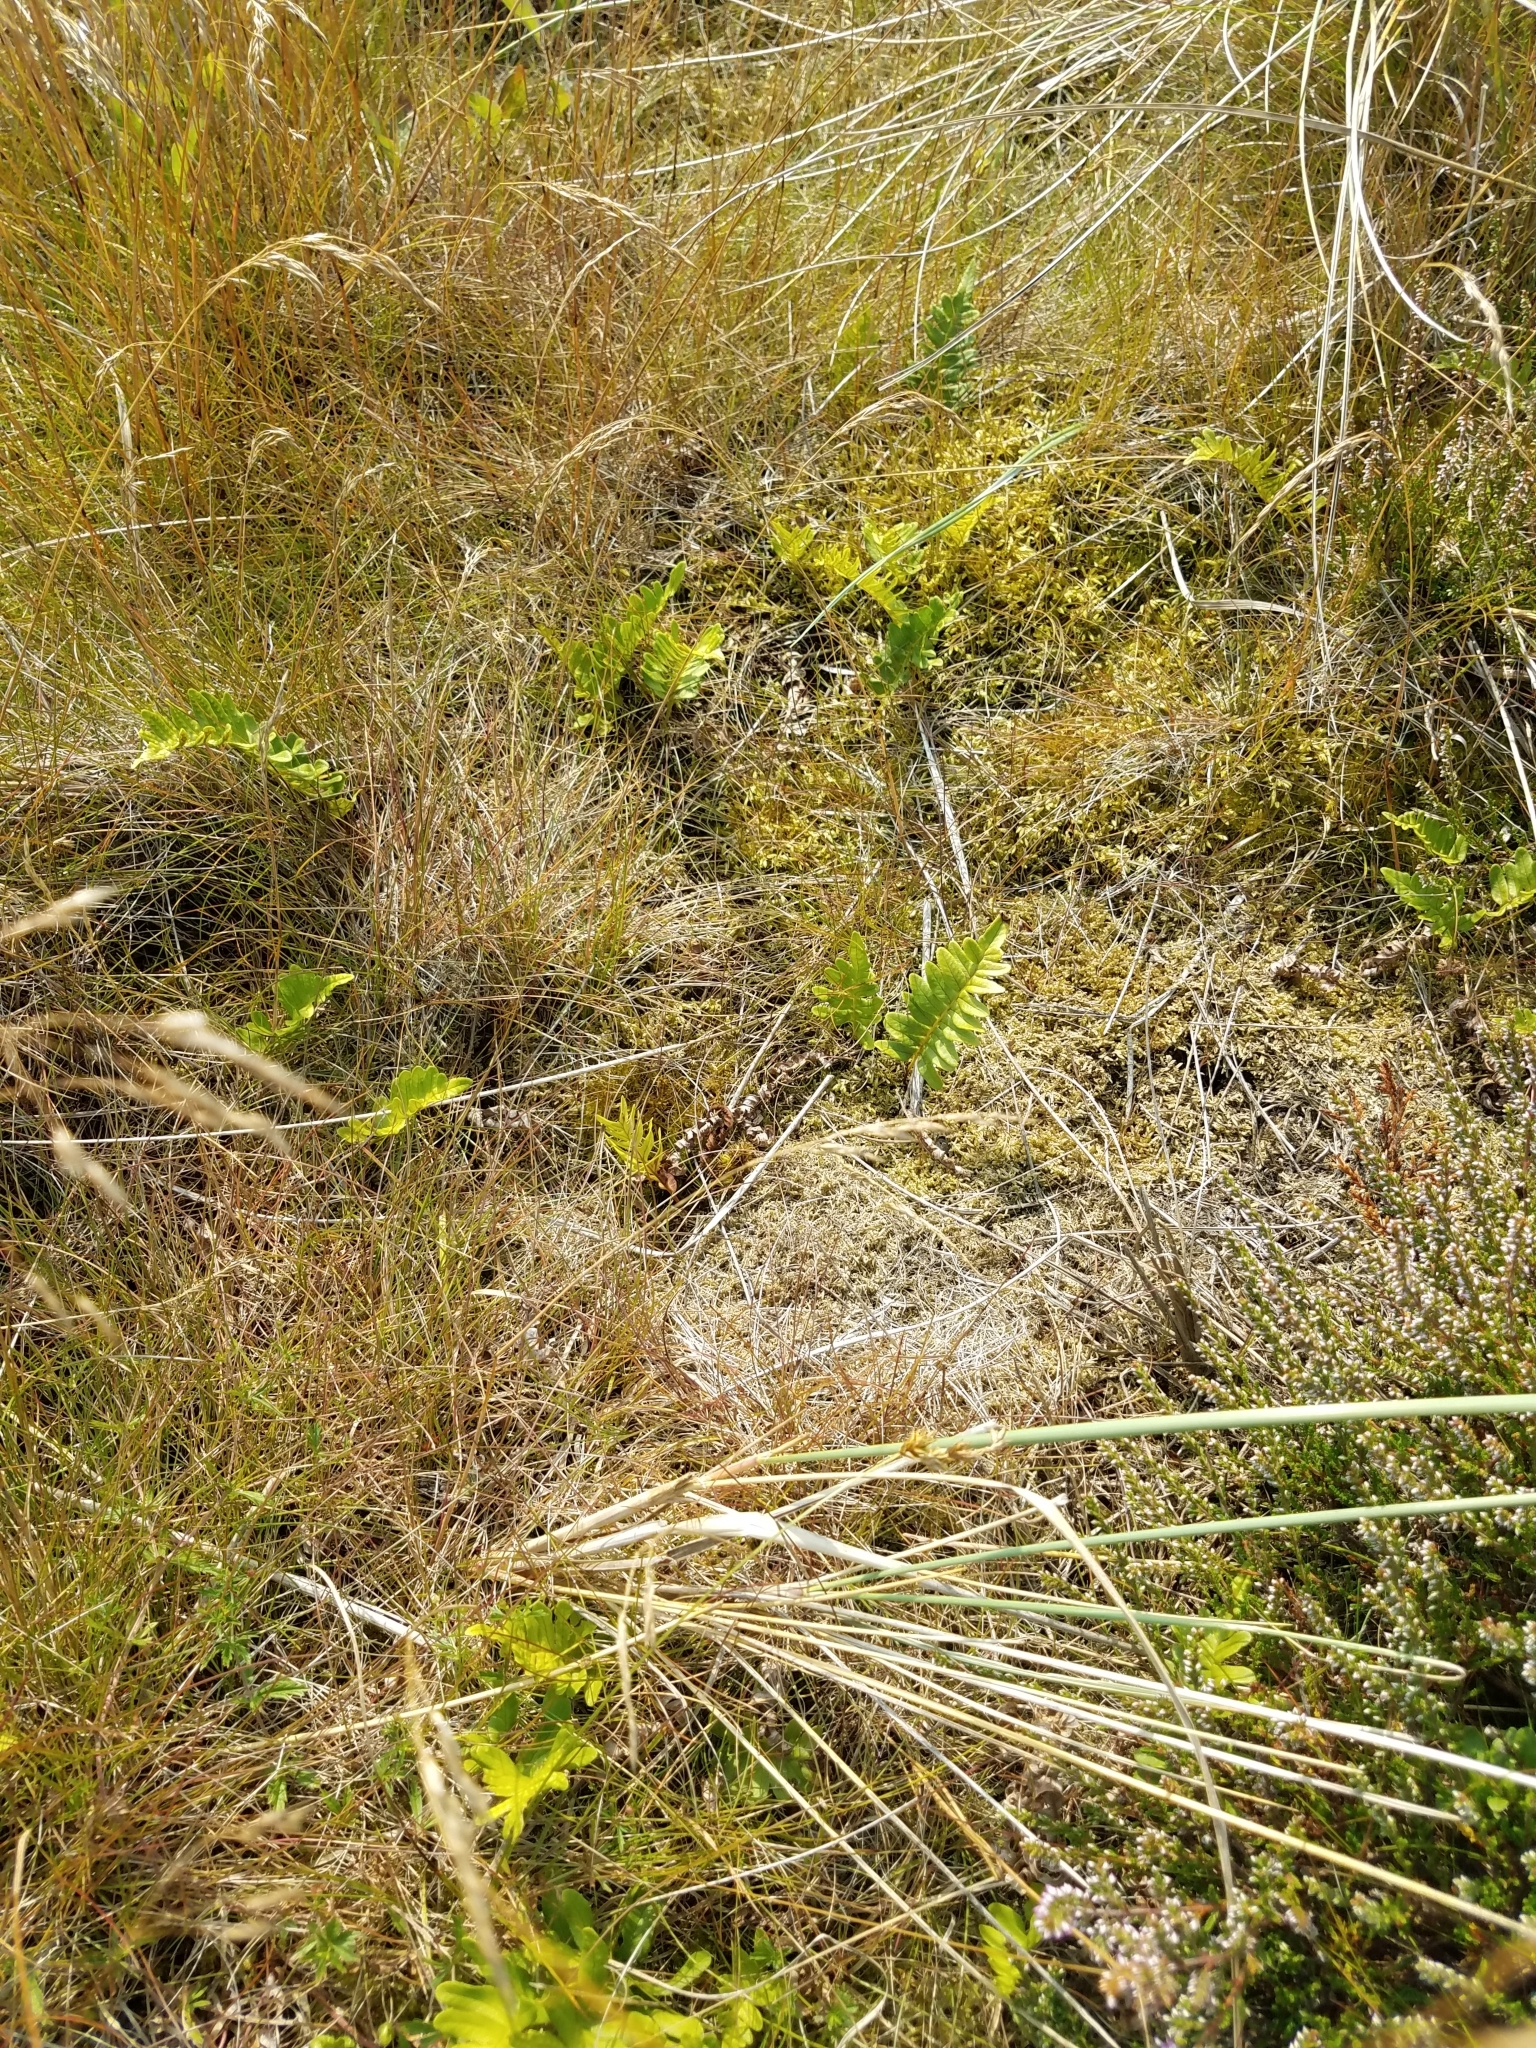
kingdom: Plantae
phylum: Tracheophyta
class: Polypodiopsida
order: Polypodiales
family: Polypodiaceae
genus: Polypodium
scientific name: Polypodium vulgare
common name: Common polypody
